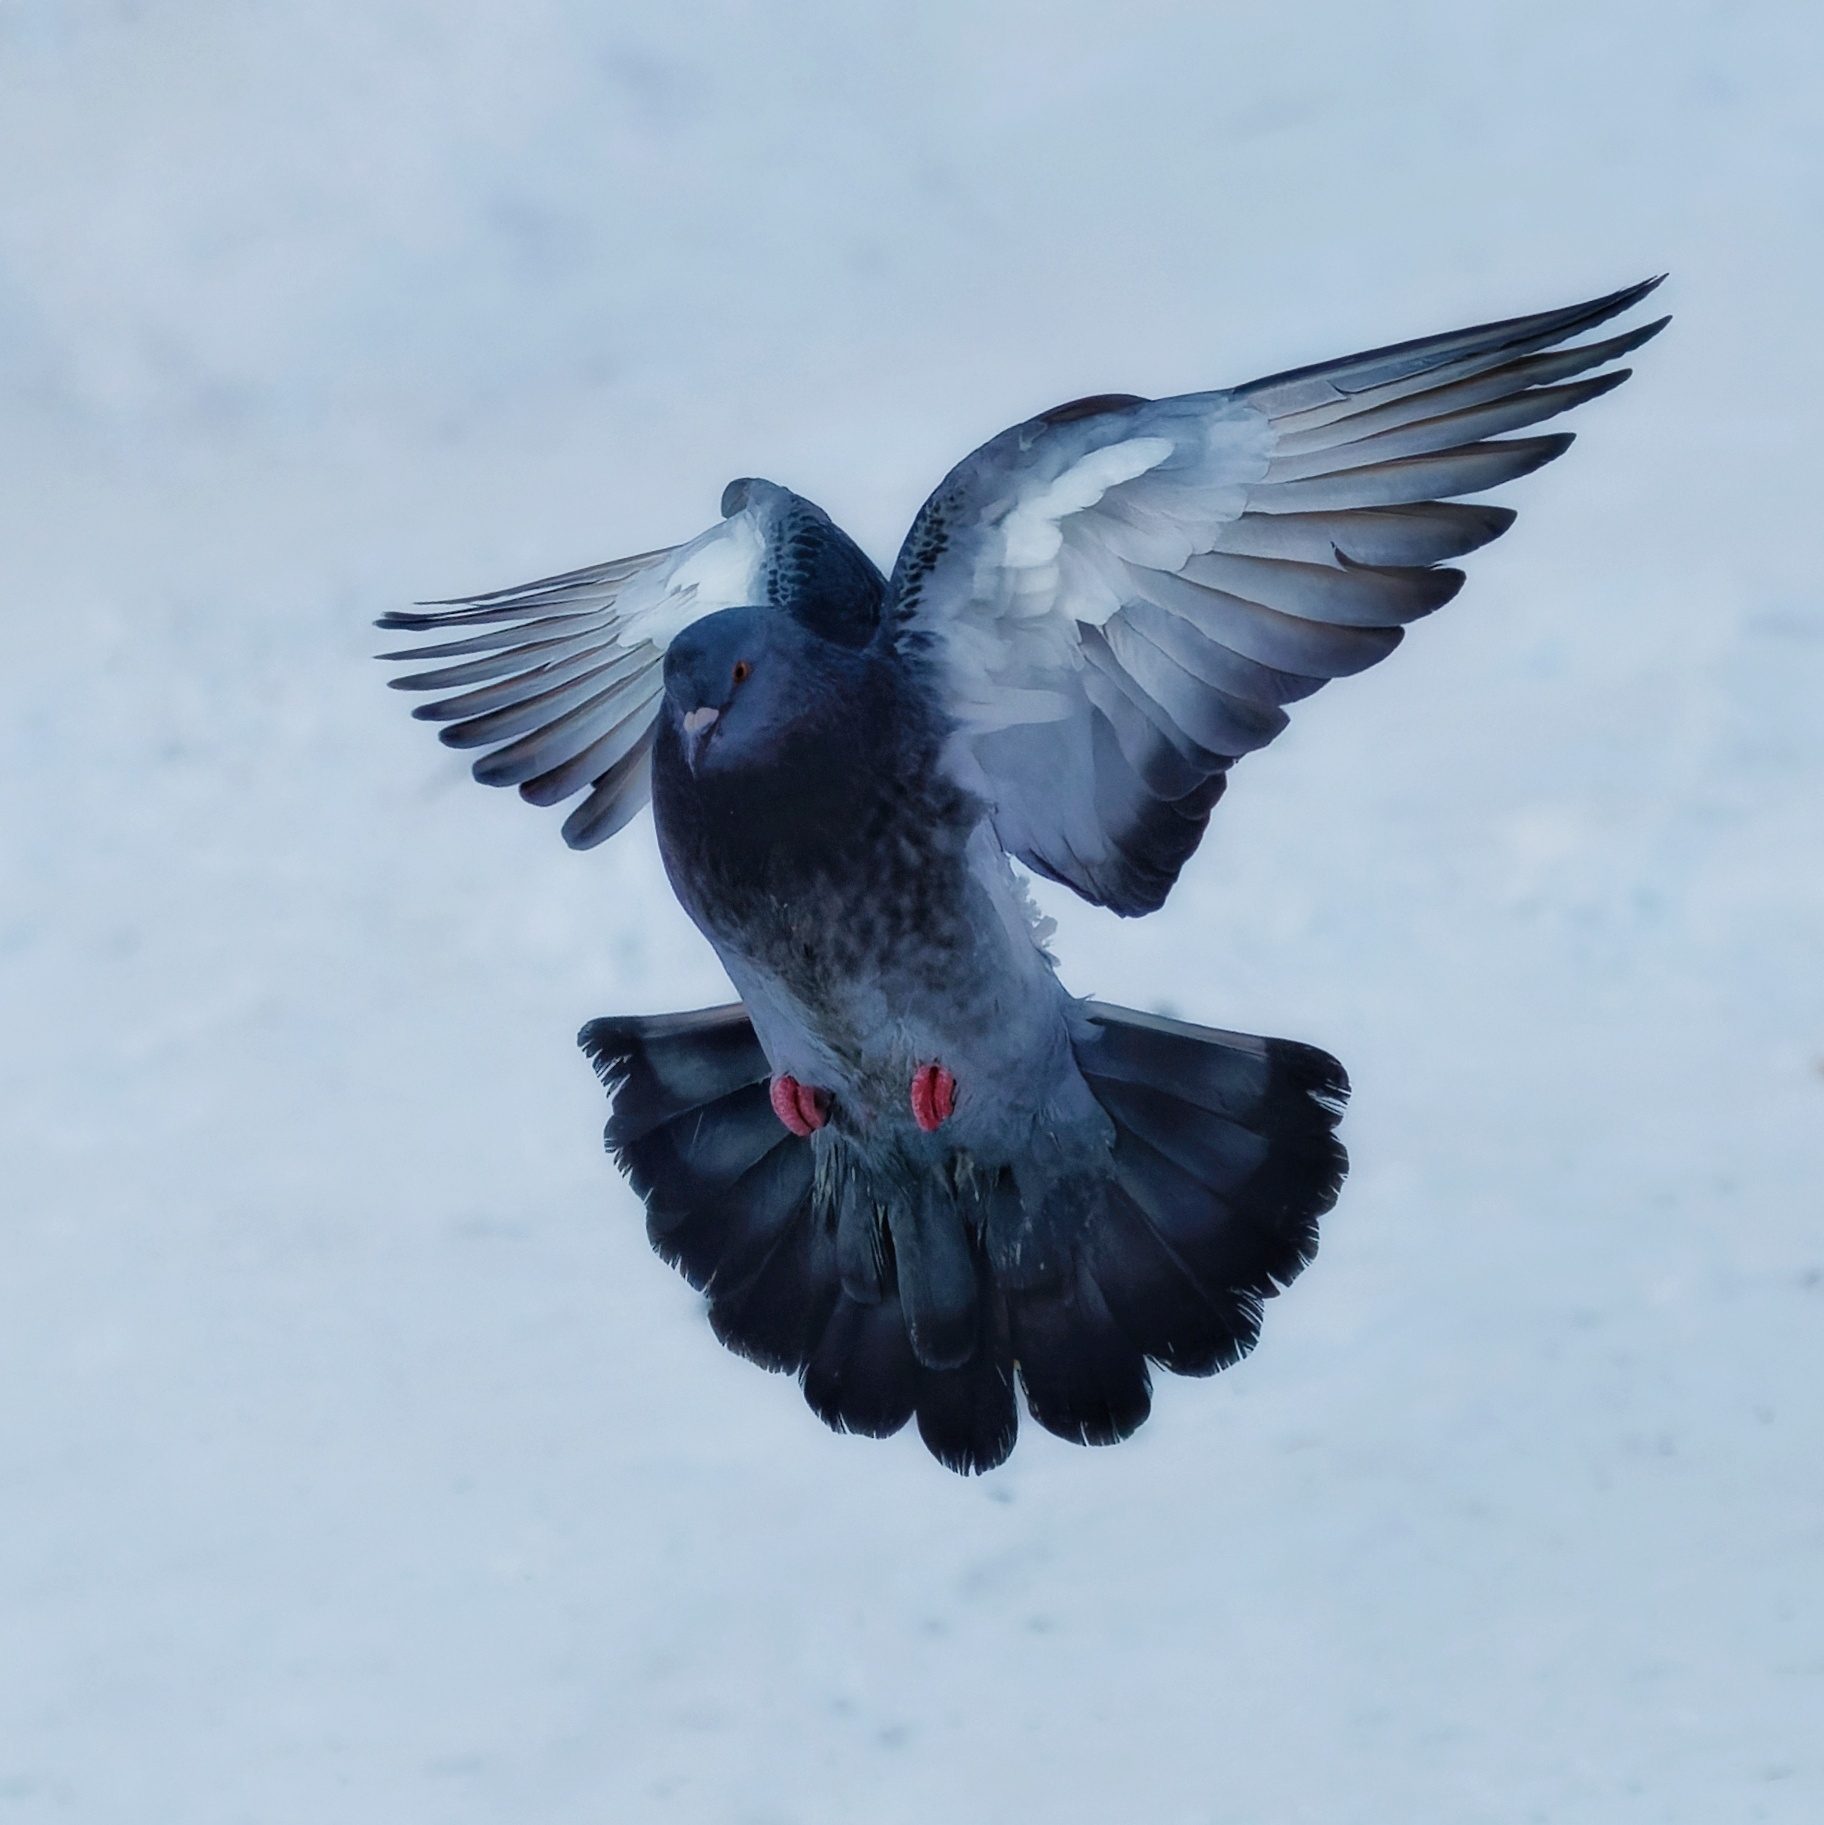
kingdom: Animalia
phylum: Chordata
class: Aves
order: Columbiformes
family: Columbidae
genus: Columba
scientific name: Columba livia
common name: Rock pigeon
